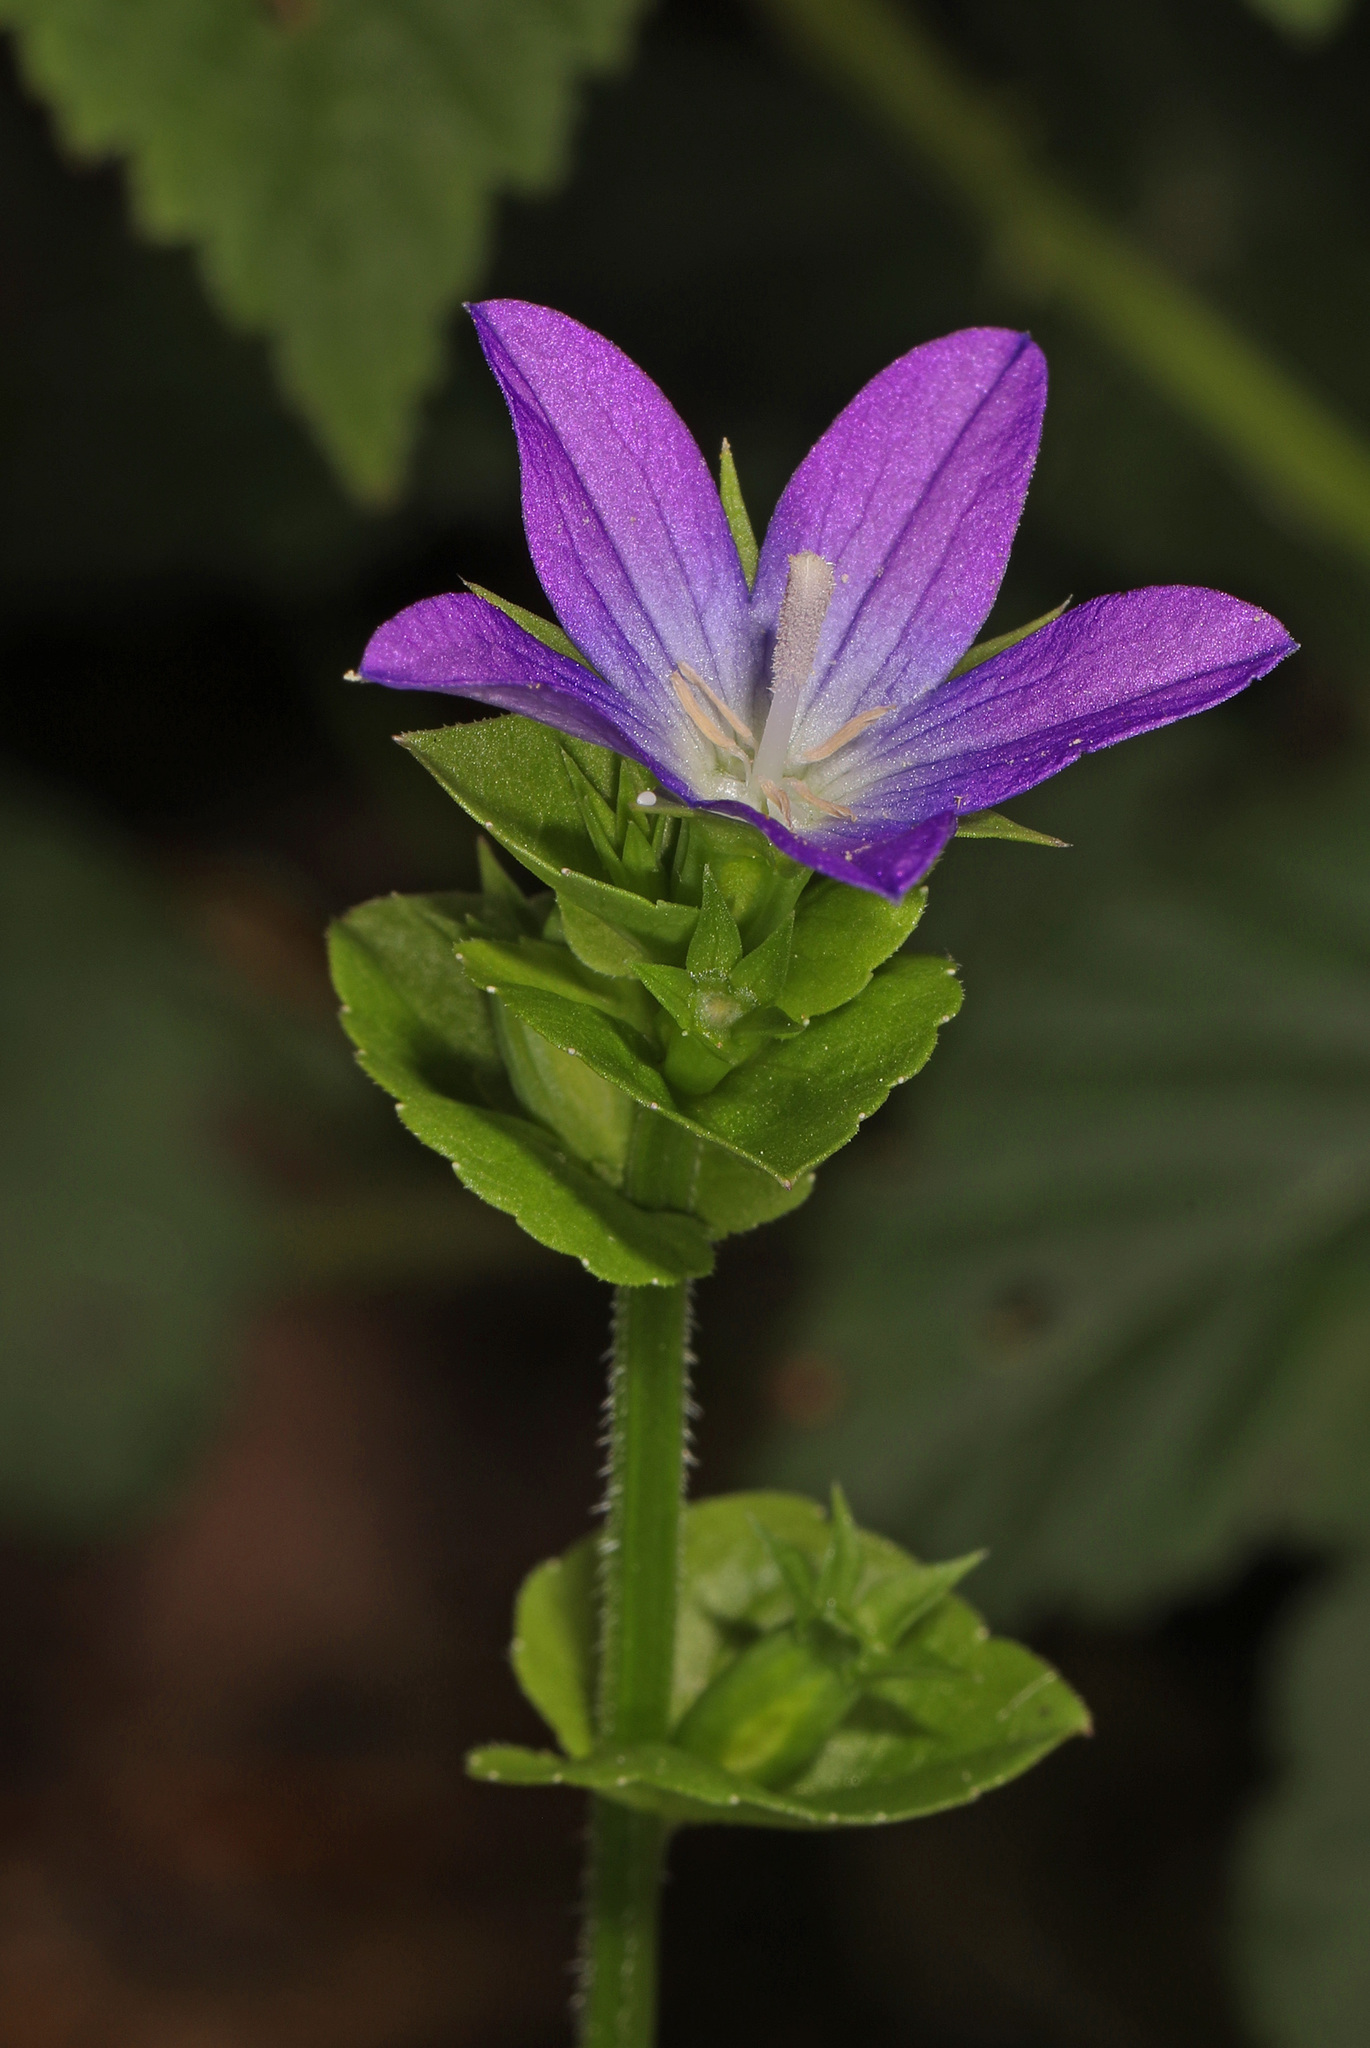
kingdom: Plantae
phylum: Tracheophyta
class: Magnoliopsida
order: Asterales
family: Campanulaceae
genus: Triodanis
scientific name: Triodanis perfoliata
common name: Clasping venus' looking-glass
